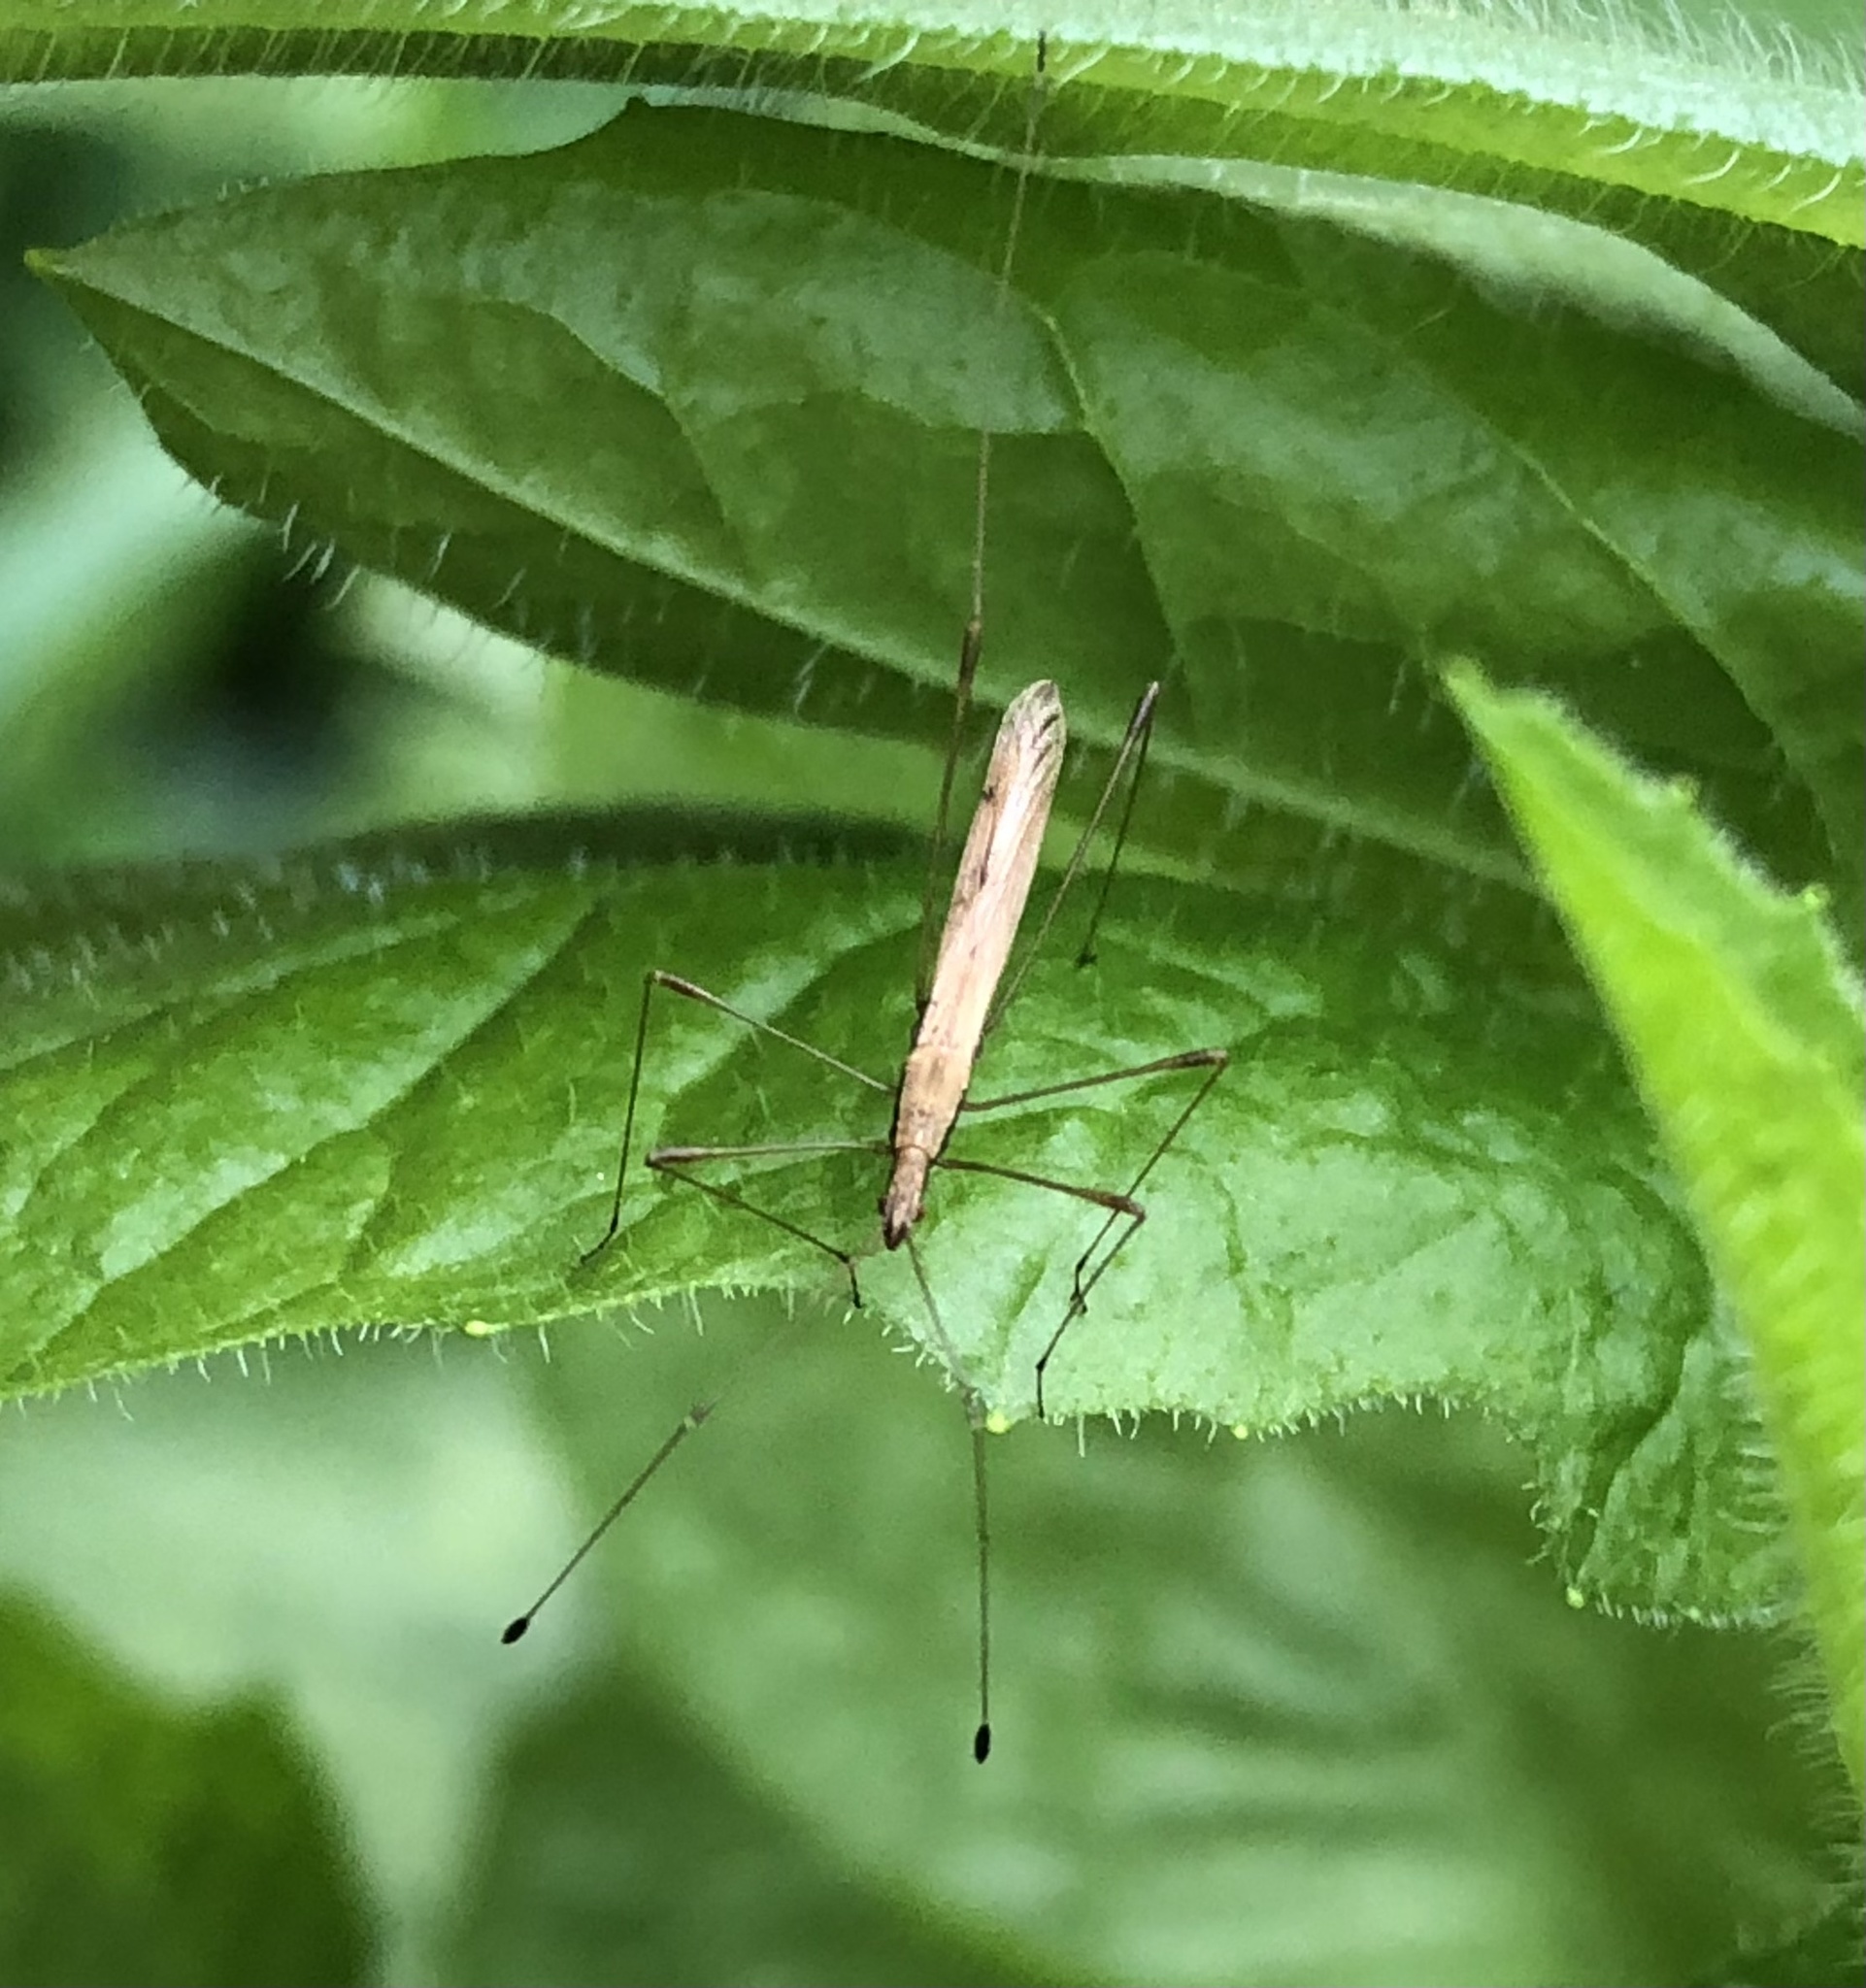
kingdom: Animalia
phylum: Arthropoda
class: Insecta
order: Hemiptera
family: Berytidae
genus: Neoneides
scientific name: Neoneides muticus
